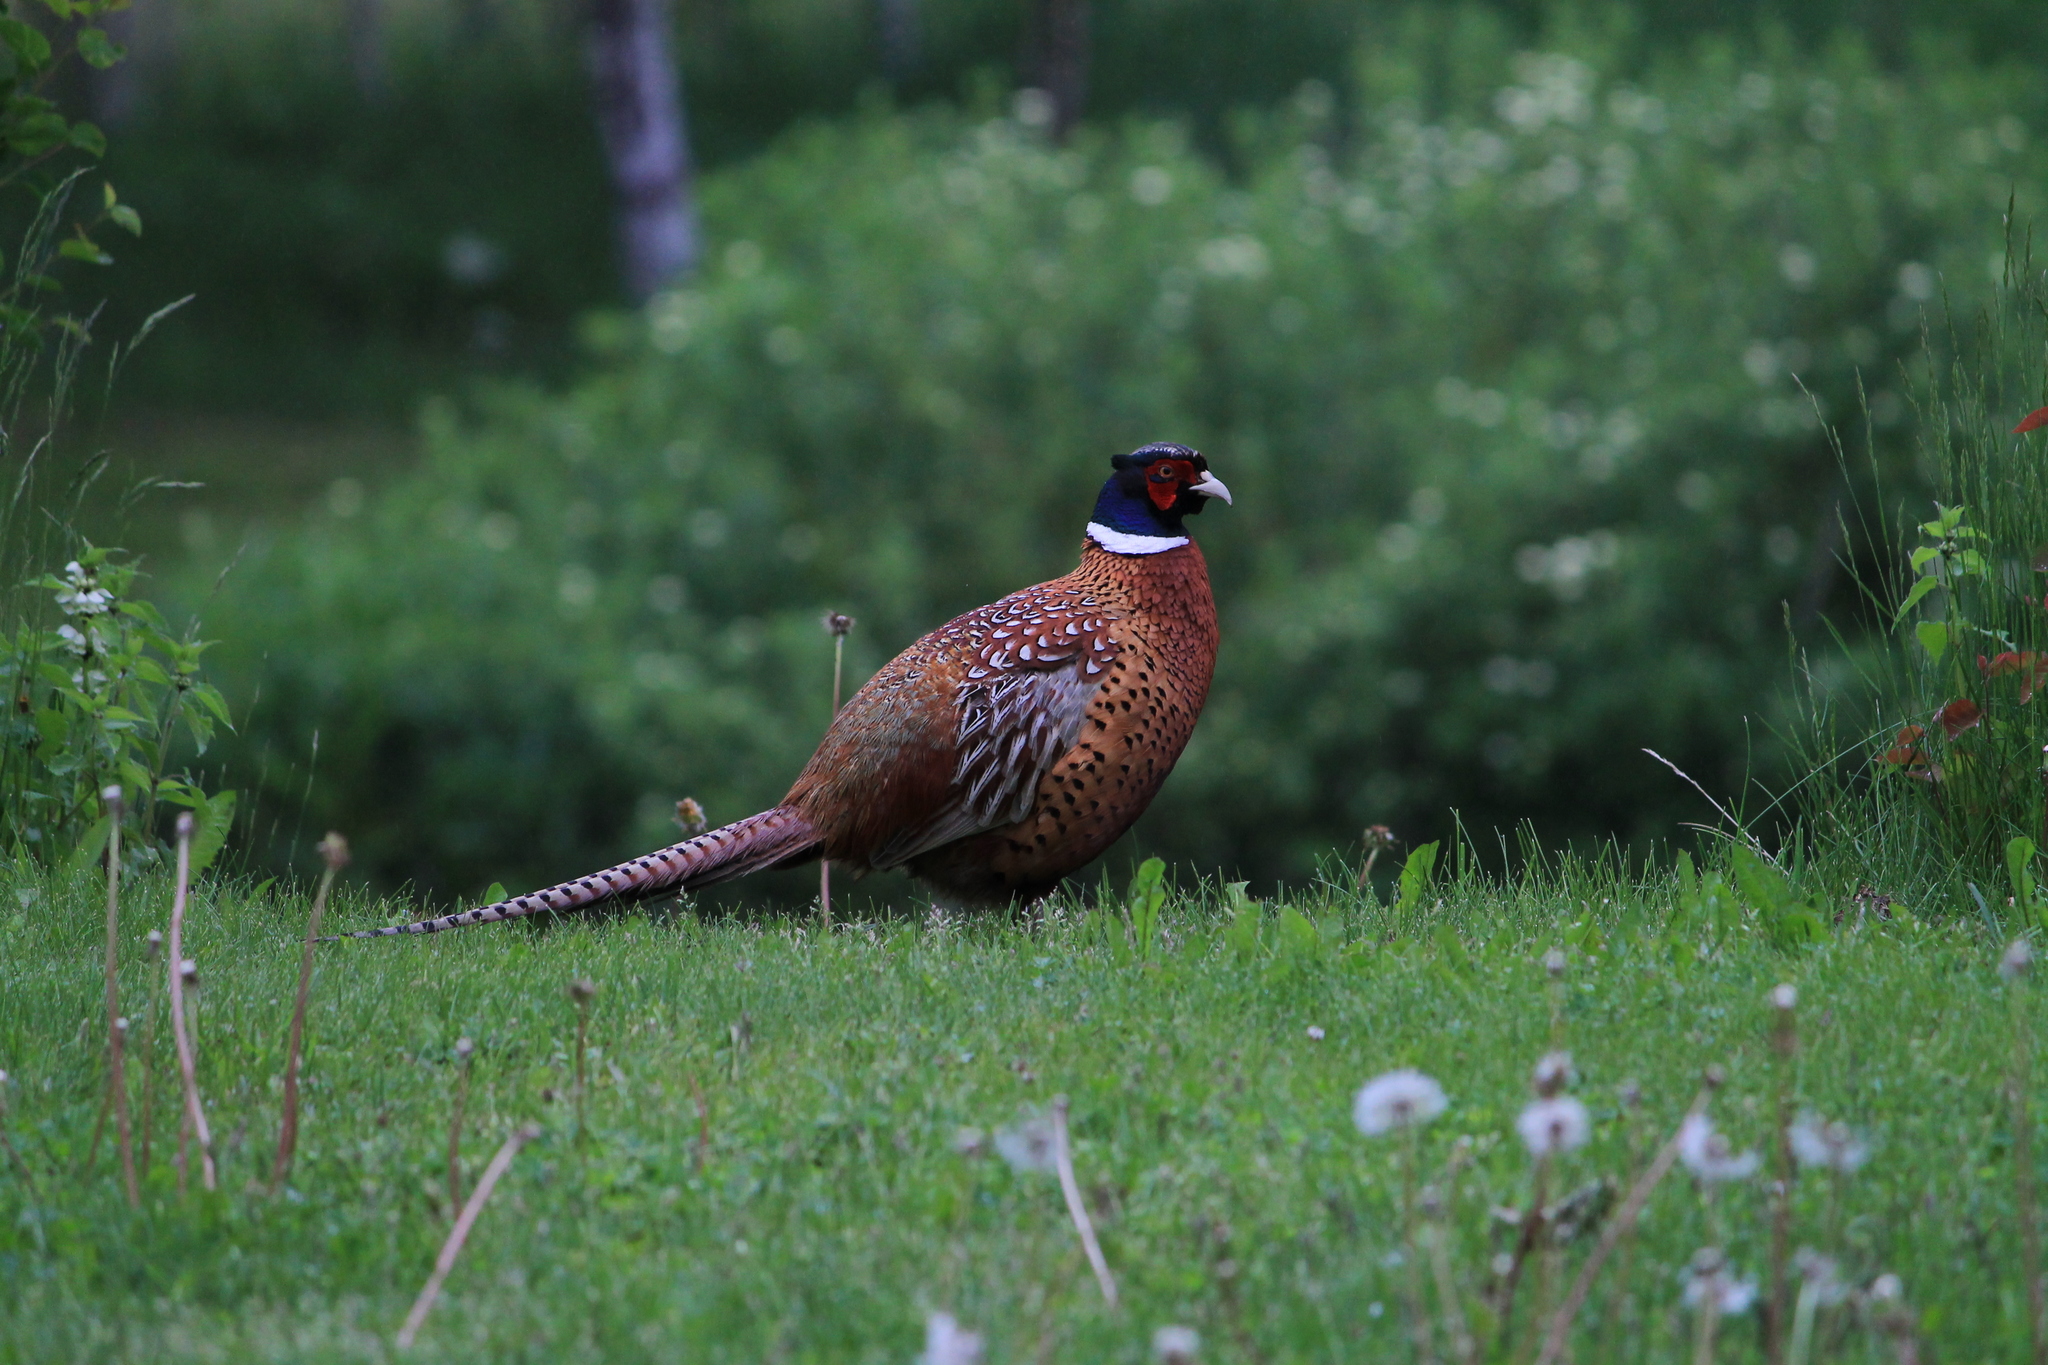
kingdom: Animalia
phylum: Chordata
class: Aves
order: Galliformes
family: Phasianidae
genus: Phasianus
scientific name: Phasianus colchicus
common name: Common pheasant
